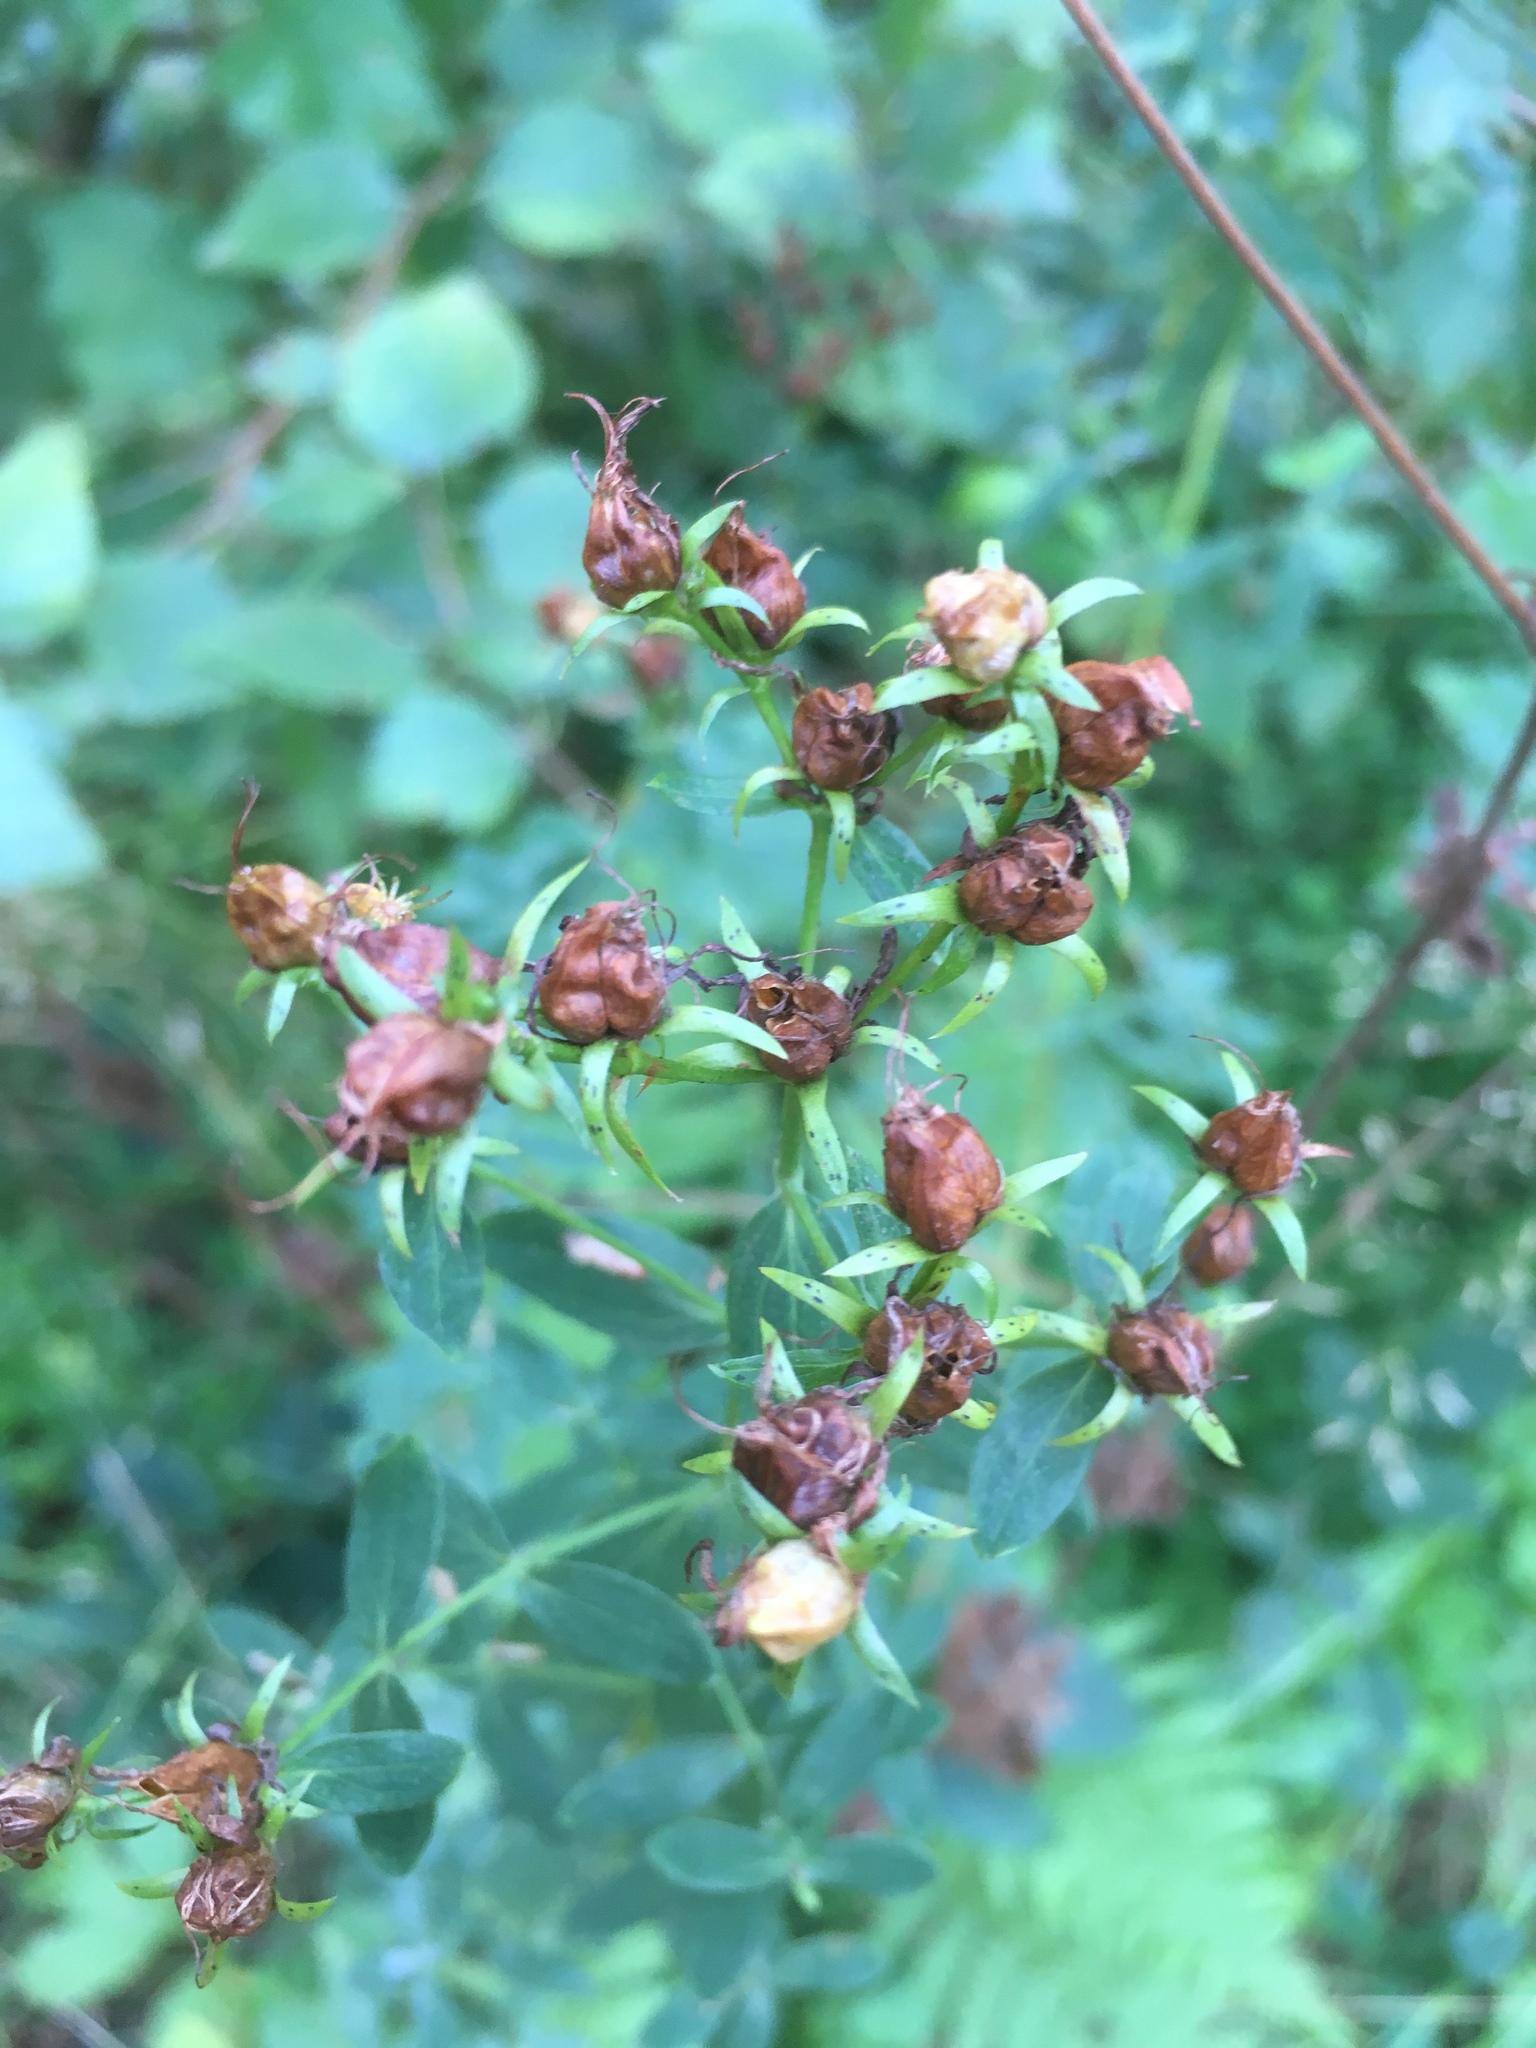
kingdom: Plantae
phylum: Tracheophyta
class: Magnoliopsida
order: Malpighiales
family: Hypericaceae
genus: Hypericum
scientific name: Hypericum perforatum
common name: Common st. johnswort
